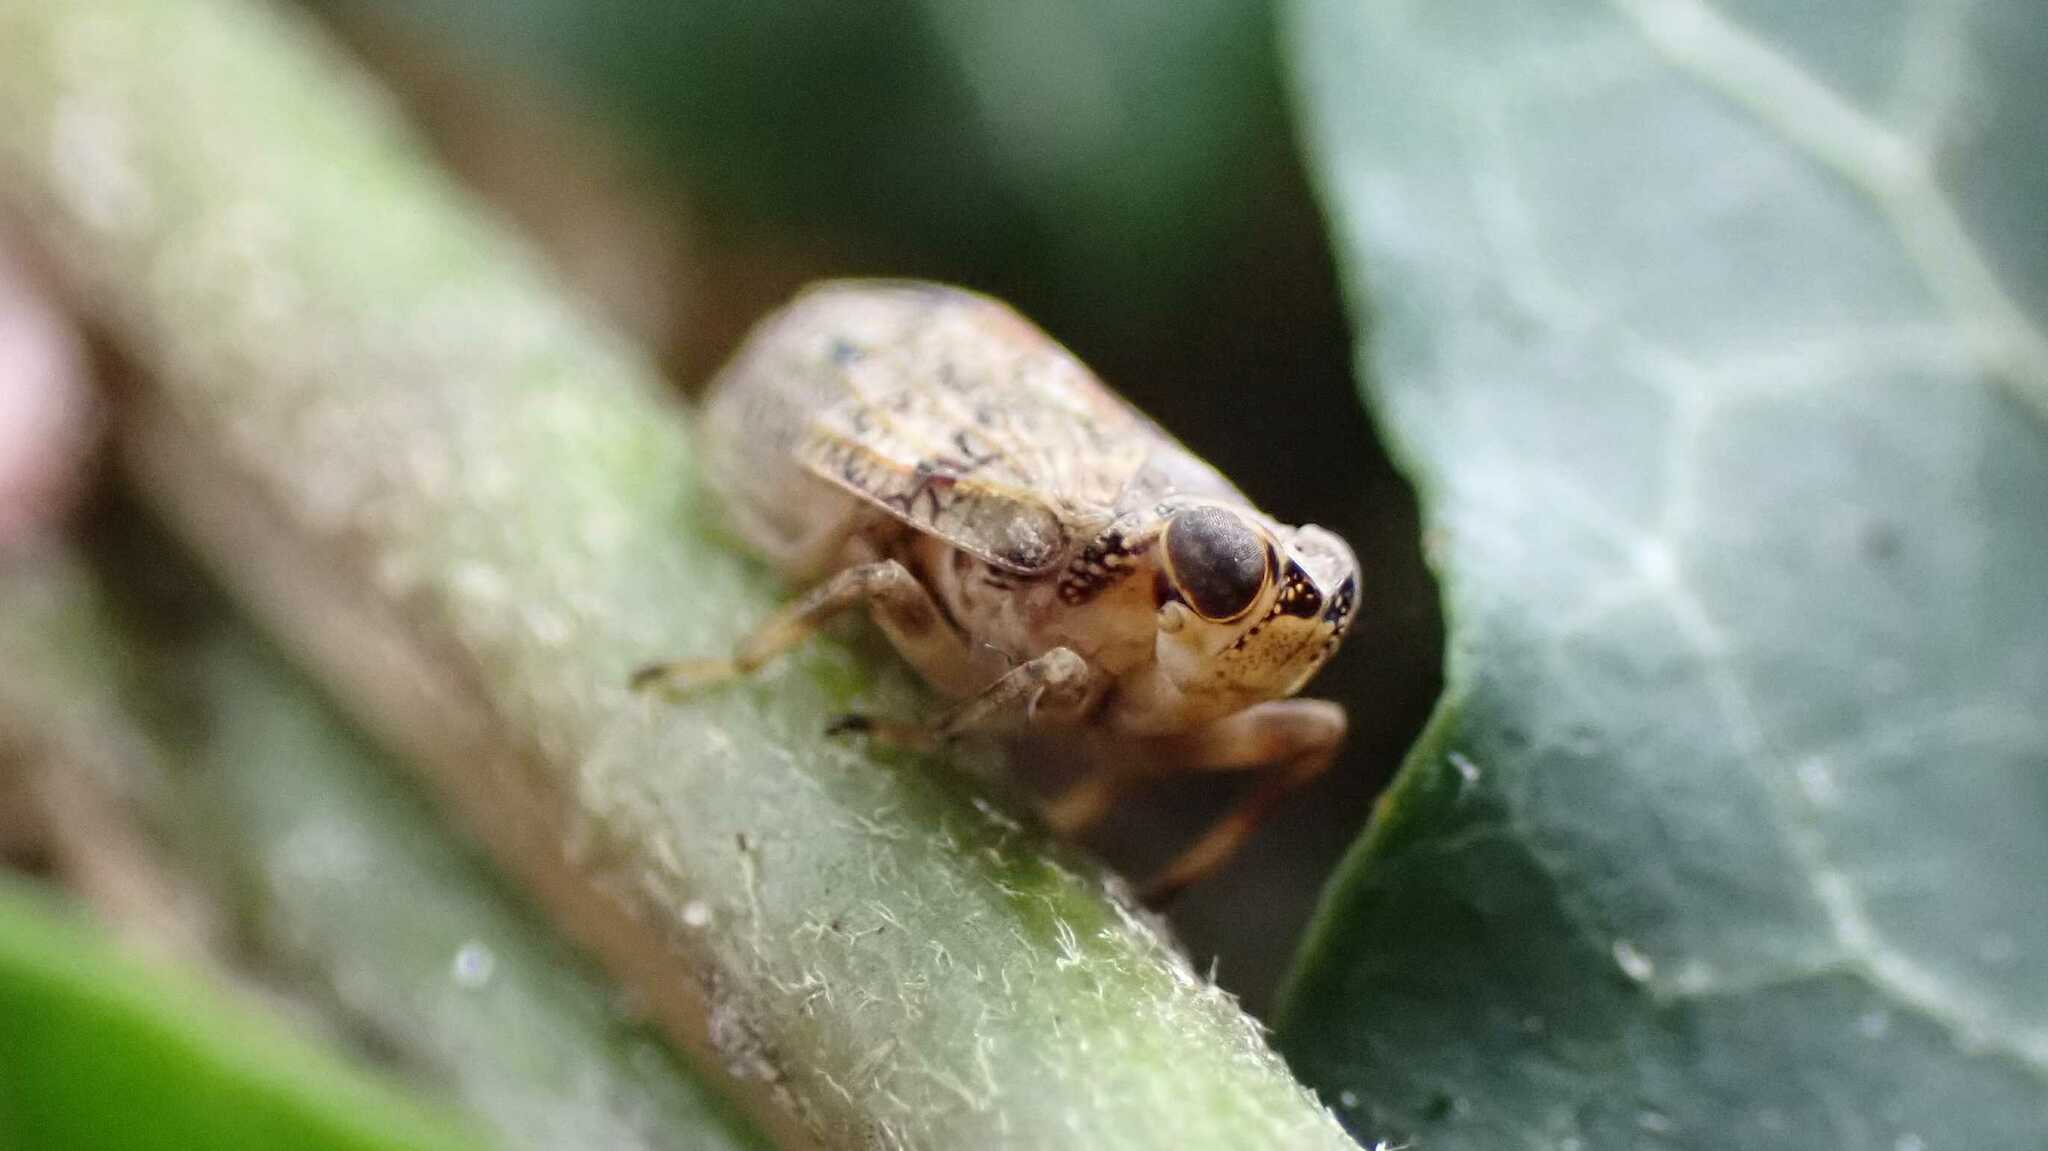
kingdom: Animalia
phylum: Arthropoda
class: Insecta
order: Hemiptera
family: Issidae
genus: Issus
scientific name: Issus coleoptratus
